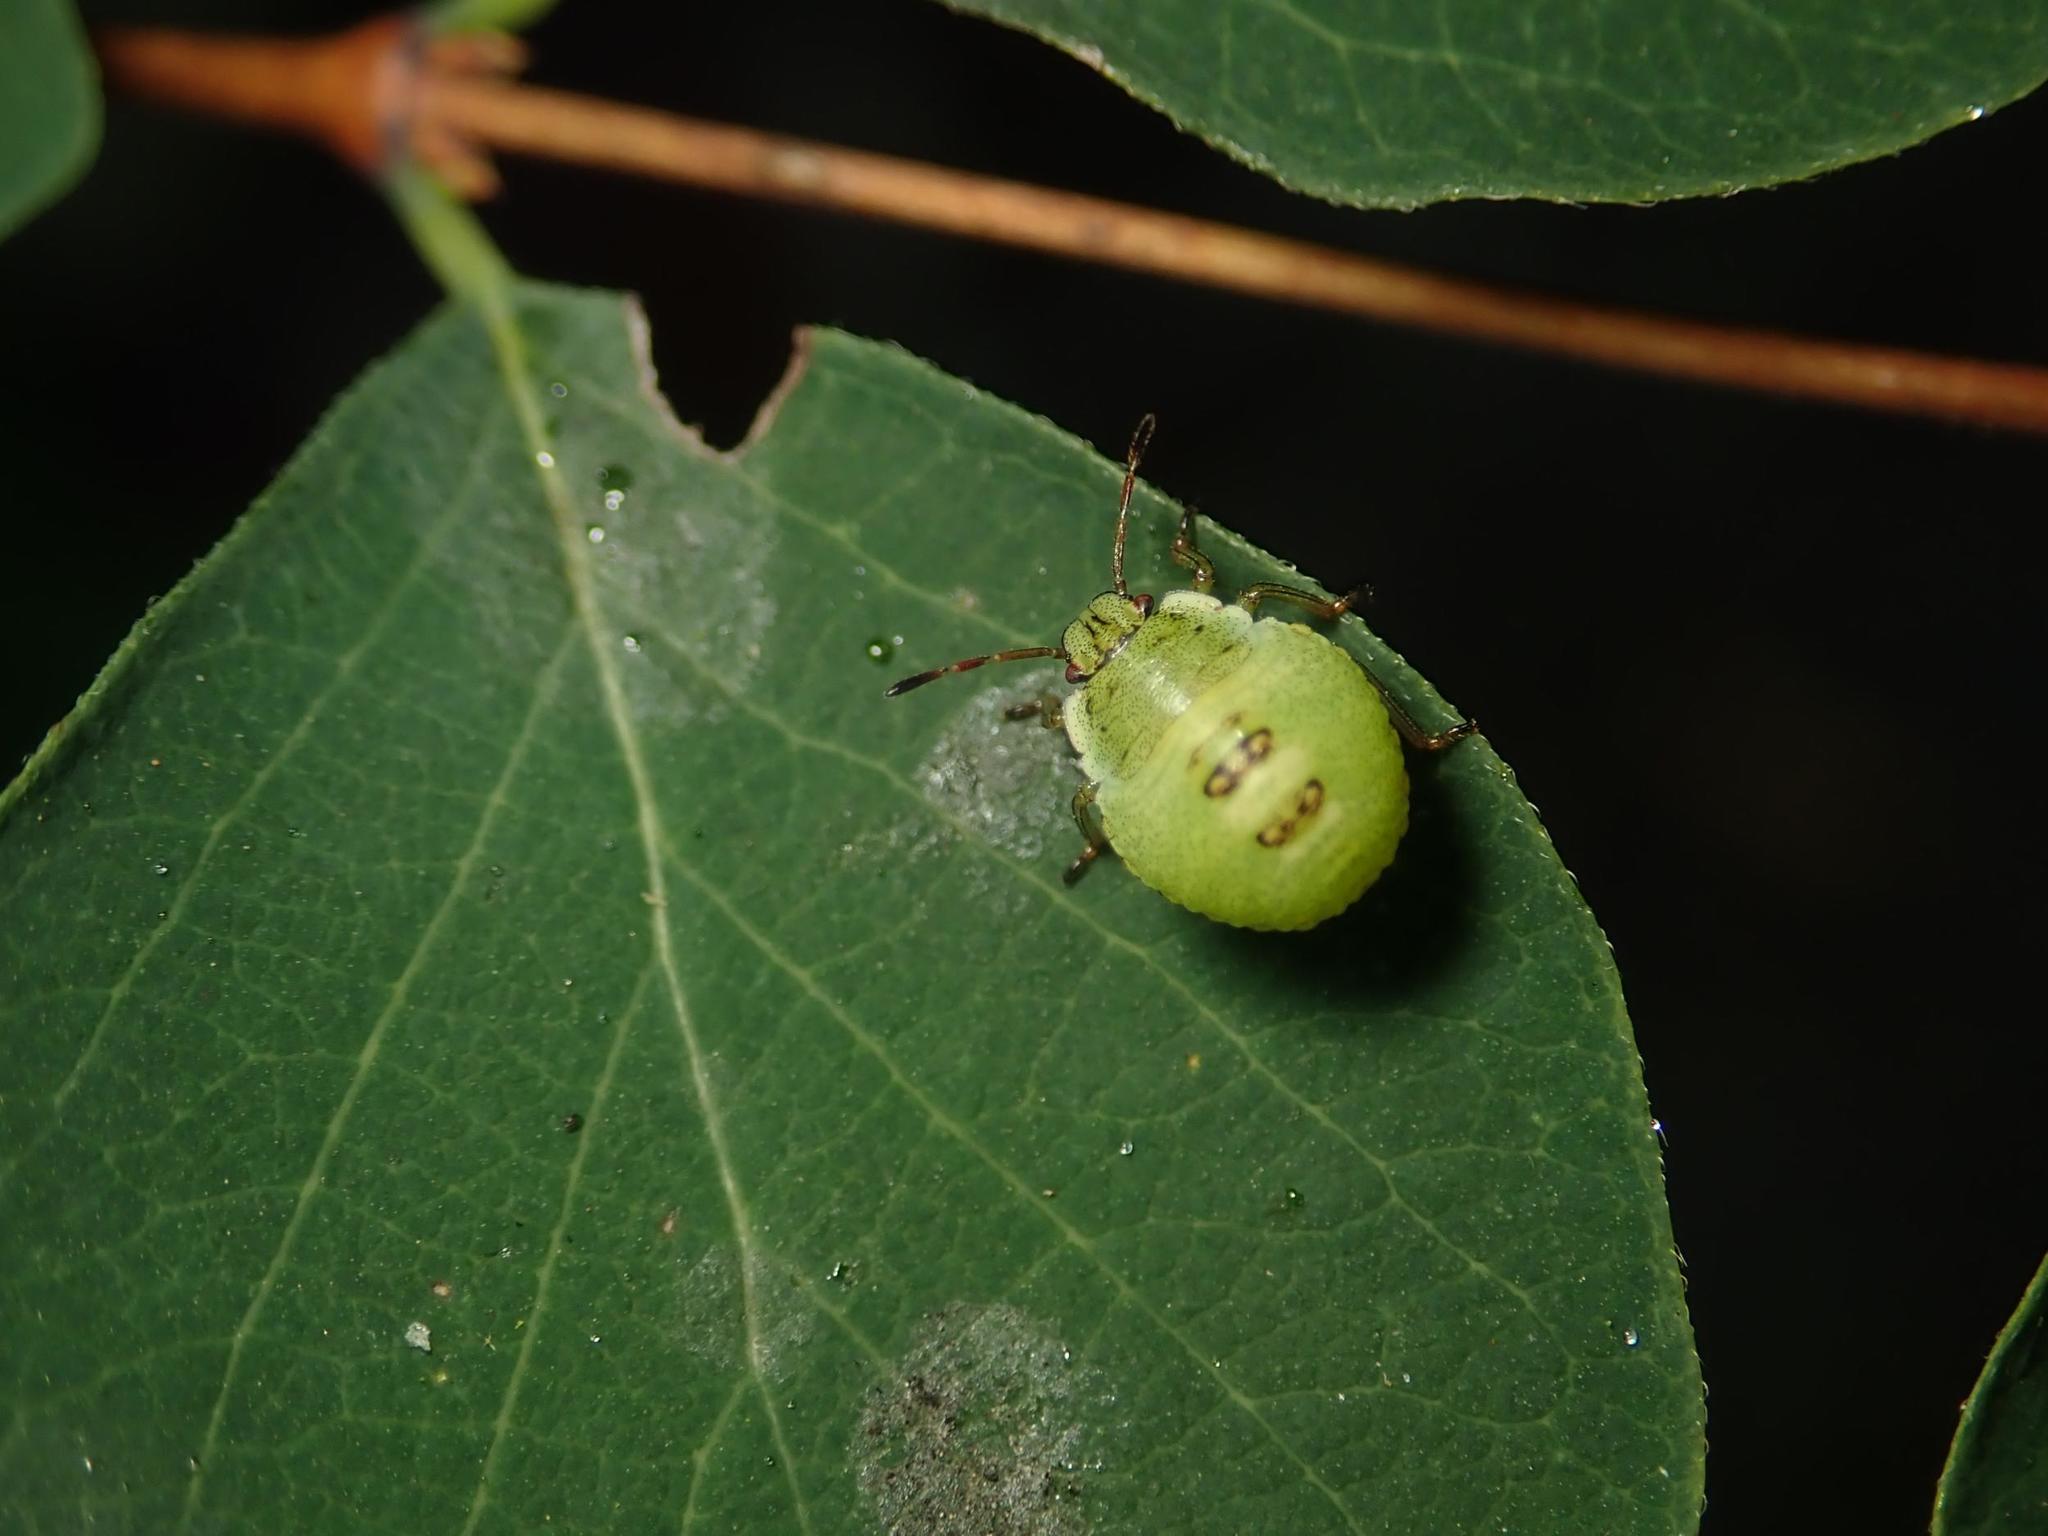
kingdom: Animalia
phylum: Arthropoda
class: Insecta
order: Hemiptera
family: Pentatomidae
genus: Palomena
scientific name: Palomena prasina
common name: Green shieldbug
